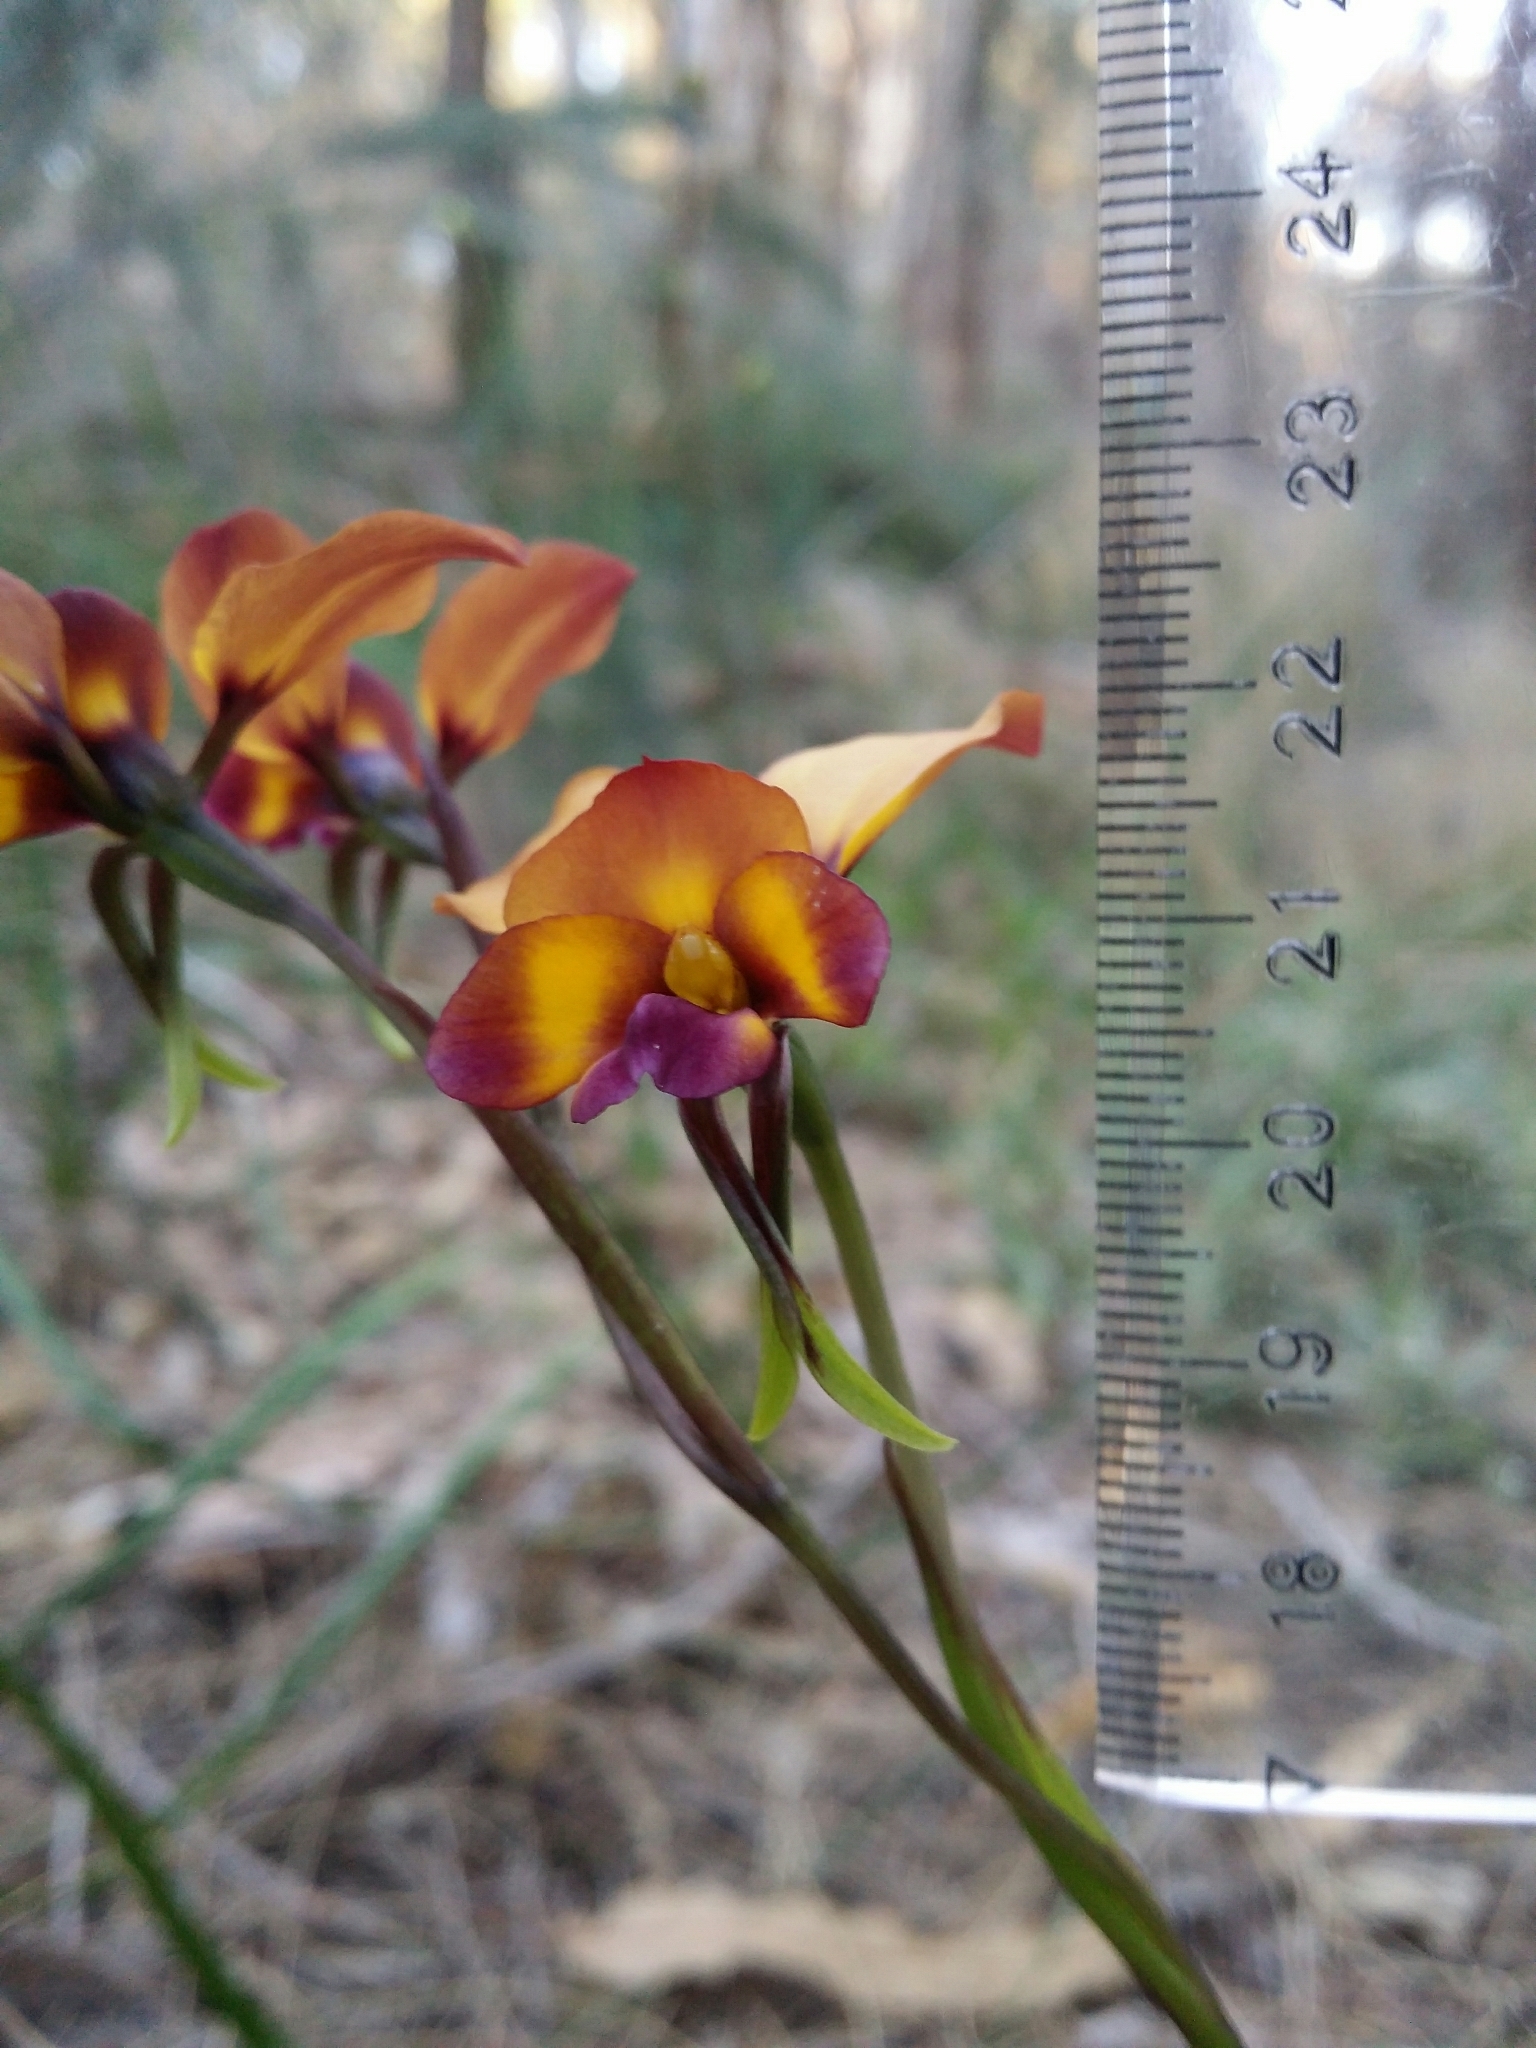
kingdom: Plantae
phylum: Tracheophyta
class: Liliopsida
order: Asparagales
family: Orchidaceae
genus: Diuris
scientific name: Diuris magnifica
